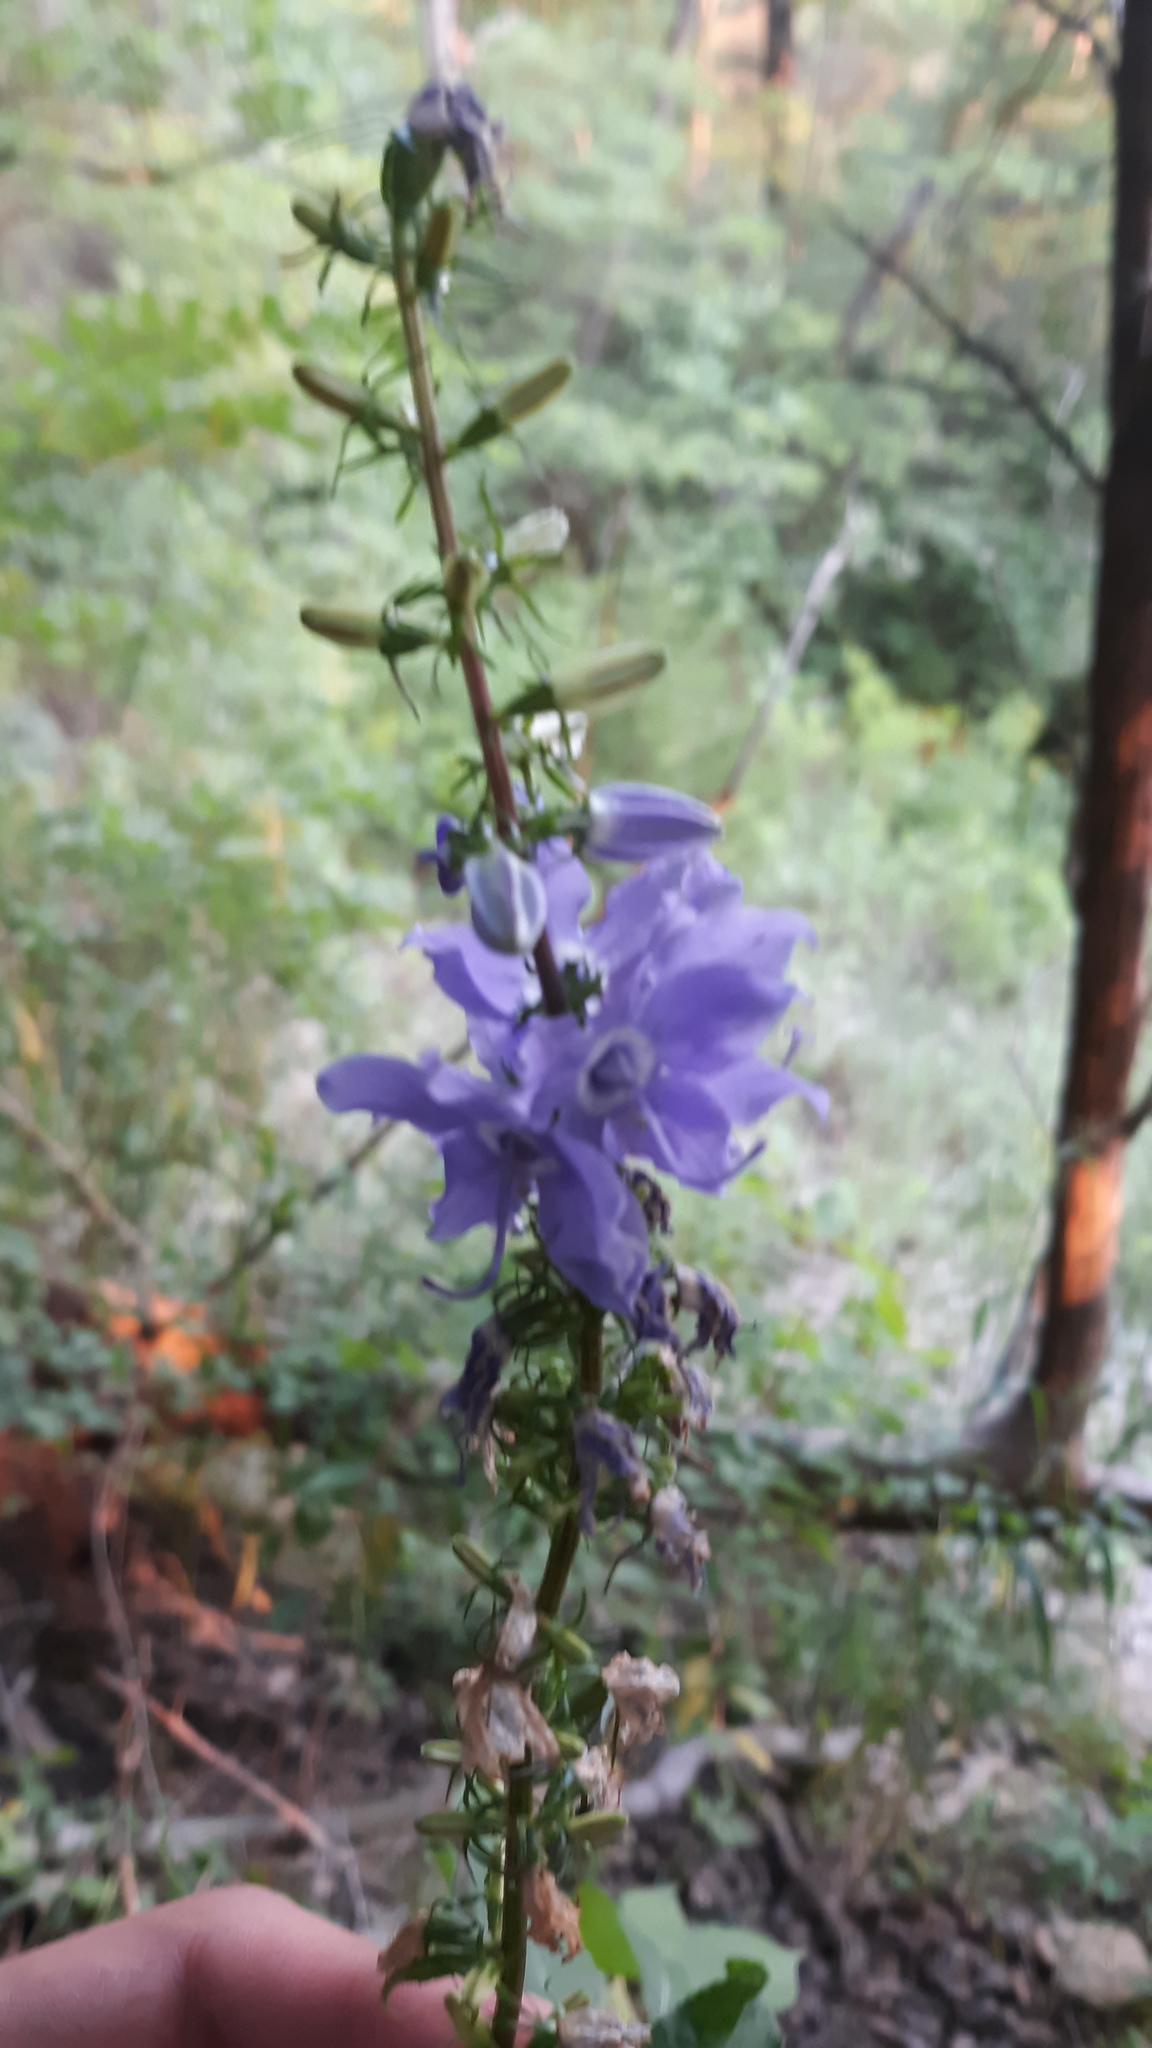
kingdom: Plantae
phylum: Tracheophyta
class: Magnoliopsida
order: Asterales
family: Campanulaceae
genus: Campanulastrum
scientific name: Campanulastrum americanum
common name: American bellflower
